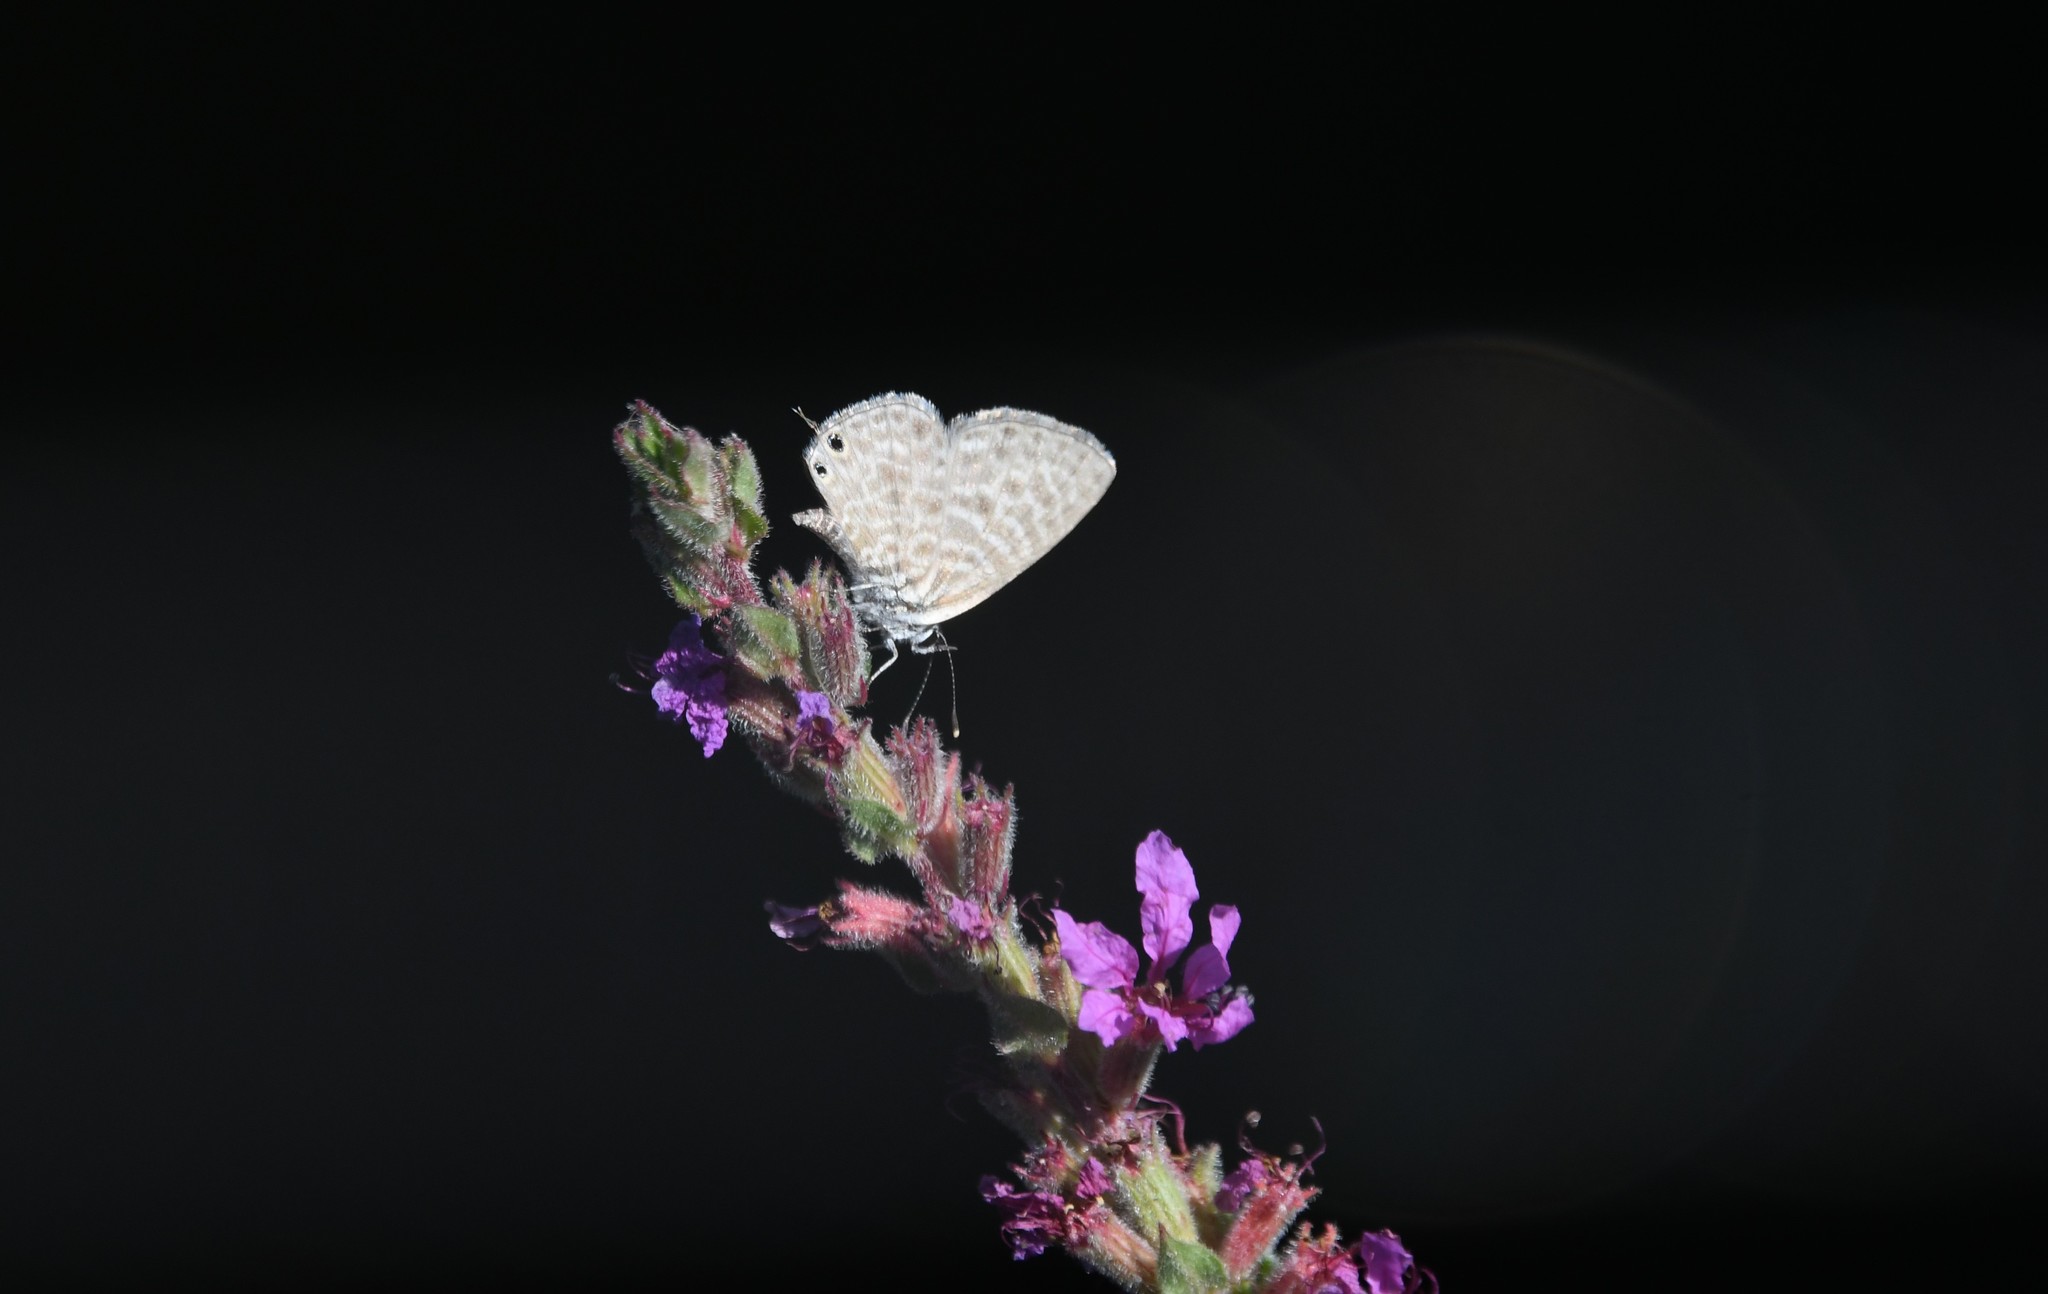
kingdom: Animalia
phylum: Arthropoda
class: Insecta
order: Lepidoptera
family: Lycaenidae
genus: Leptotes
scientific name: Leptotes pirithous
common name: Lang's short-tailed blue
